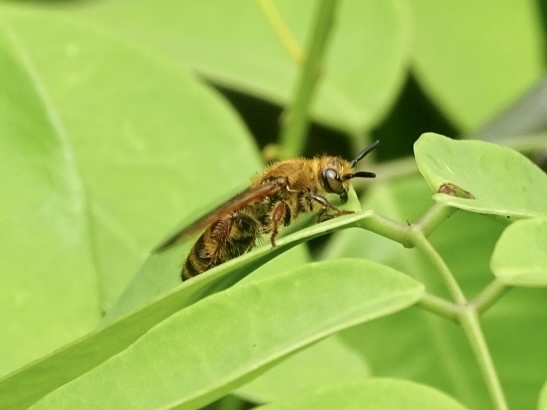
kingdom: Animalia
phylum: Arthropoda
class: Insecta
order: Hymenoptera
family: Scoliidae
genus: Campsomeris
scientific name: Campsomeris phalerata
